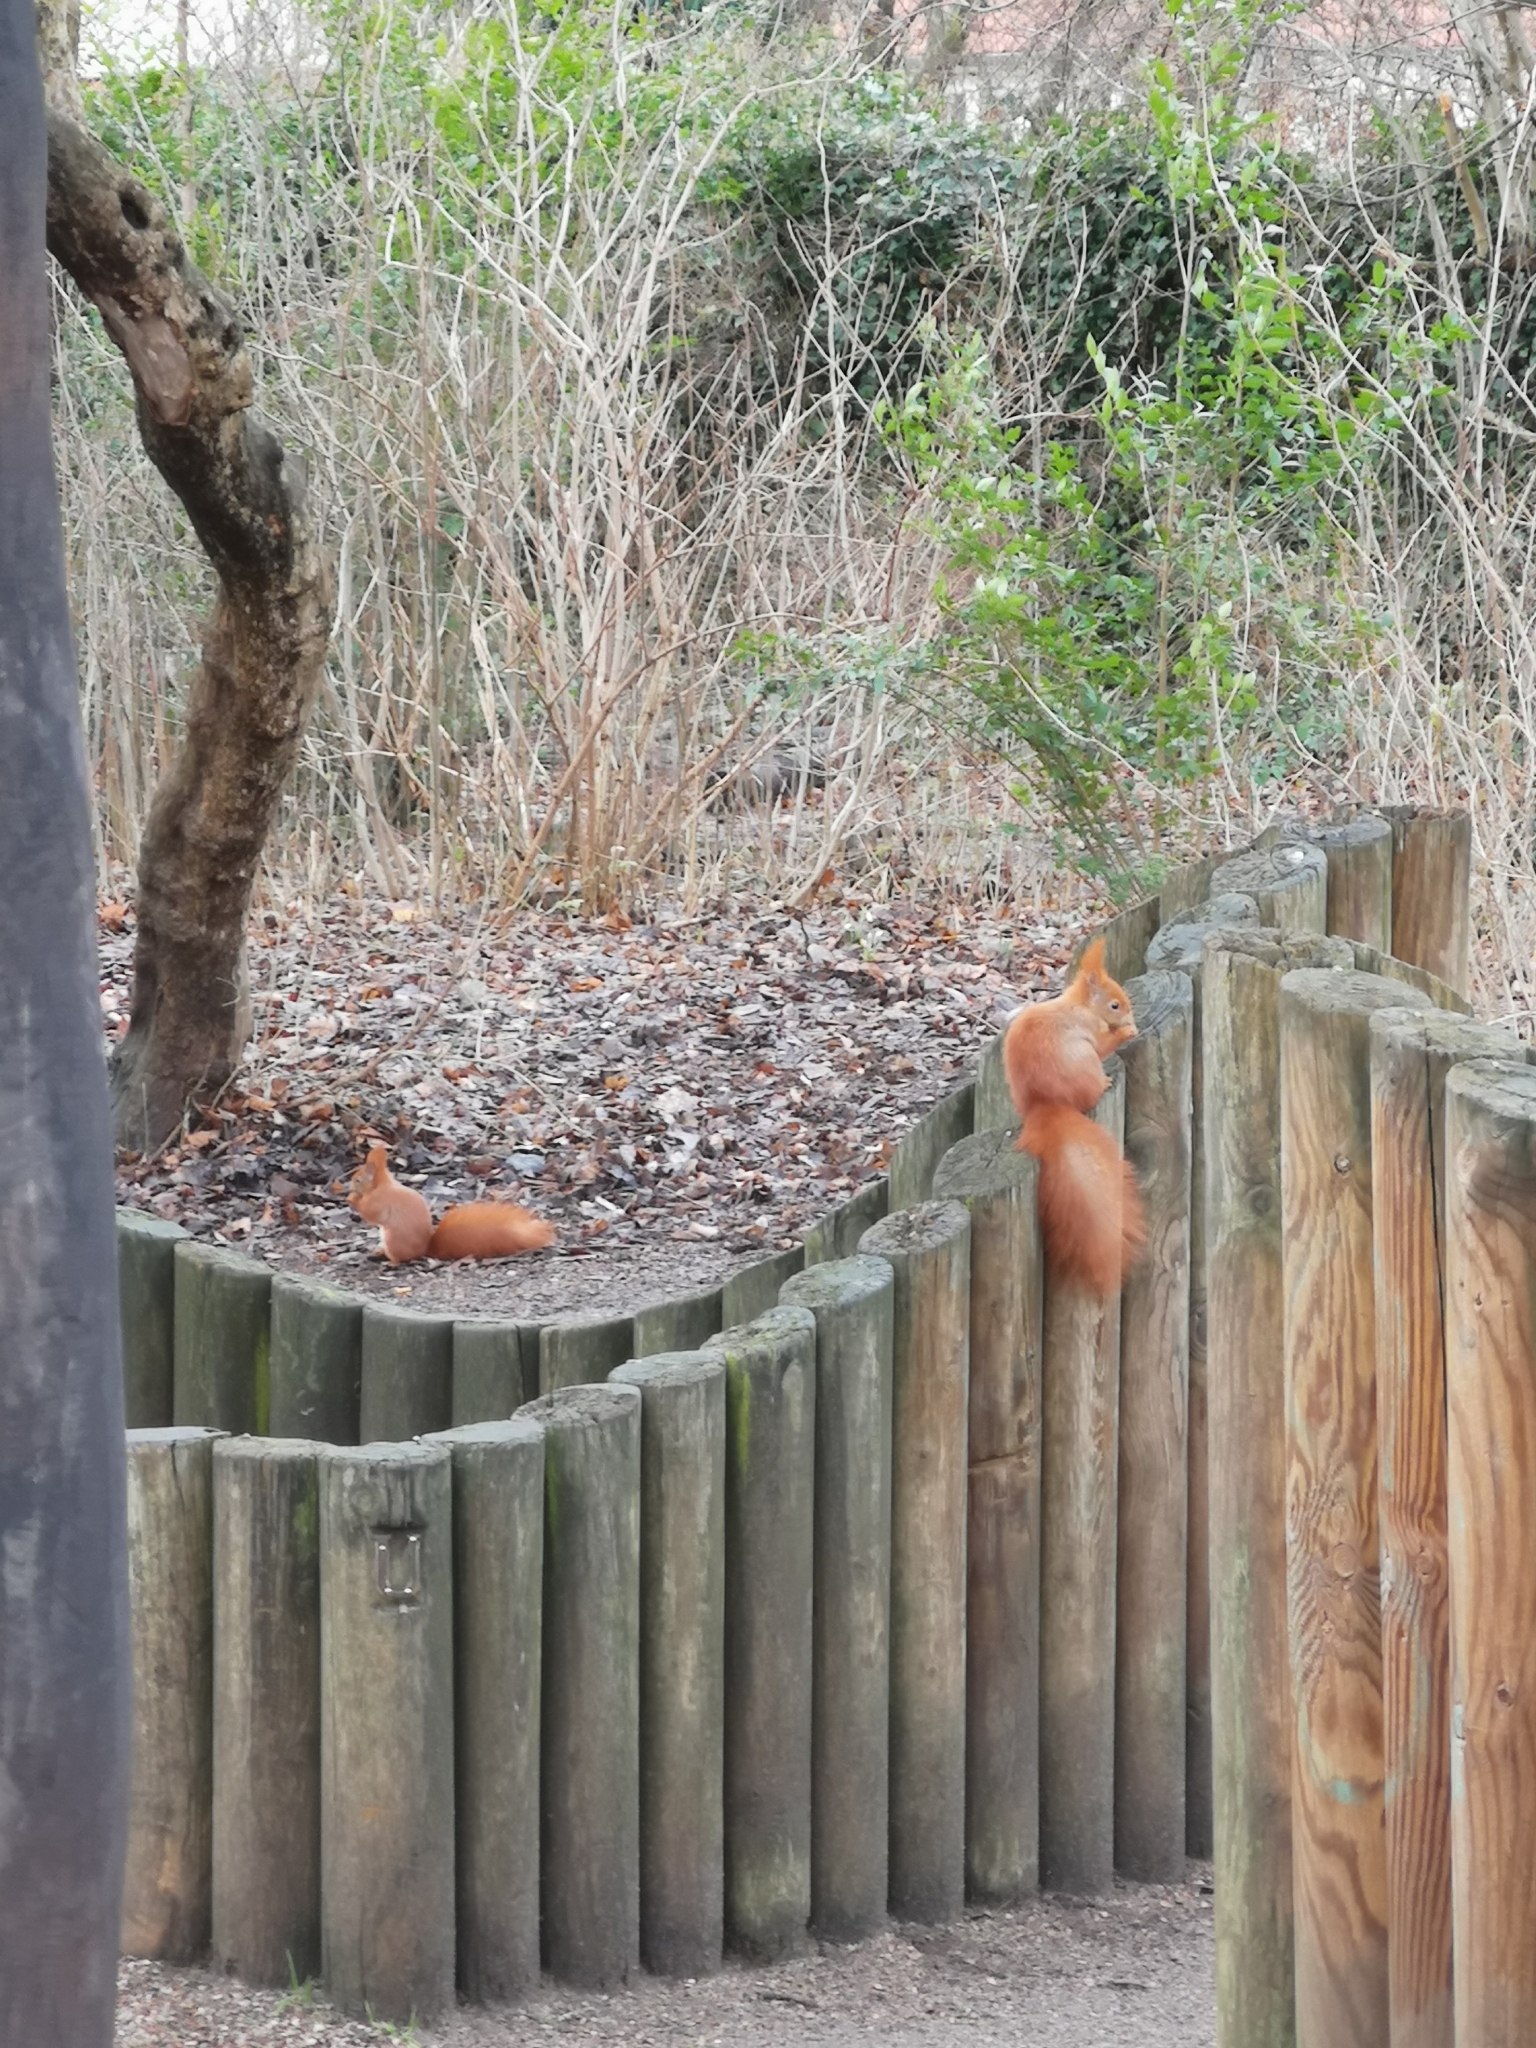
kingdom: Animalia
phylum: Chordata
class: Mammalia
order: Rodentia
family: Sciuridae
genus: Sciurus
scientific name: Sciurus vulgaris
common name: Eurasian red squirrel
